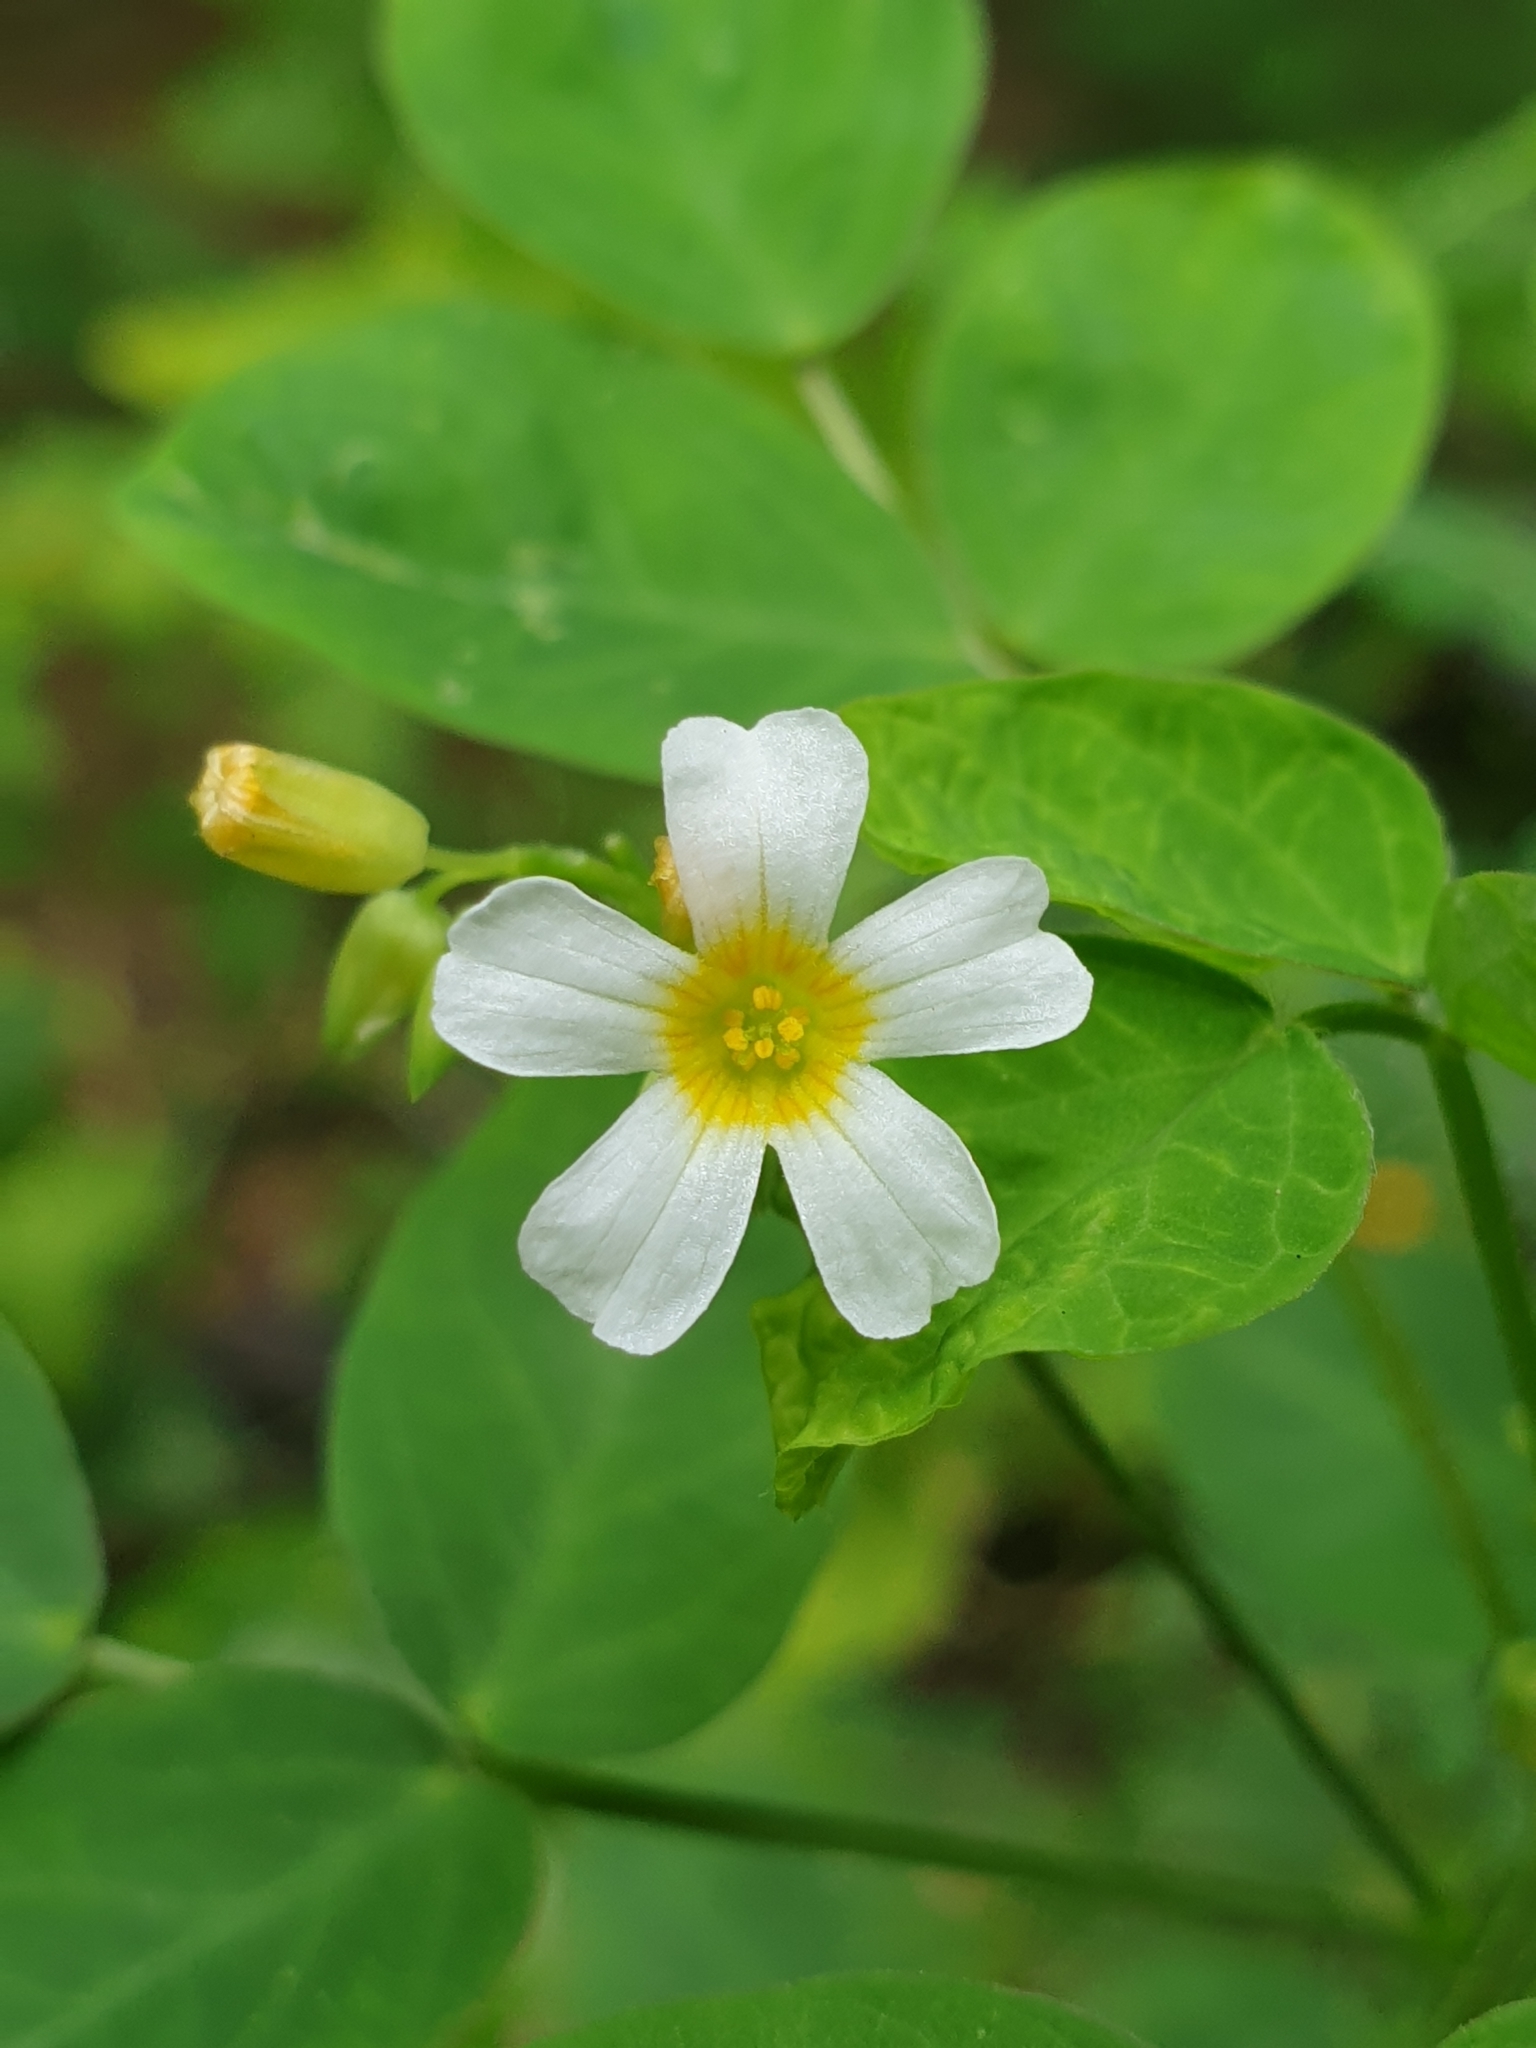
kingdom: Plantae
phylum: Tracheophyta
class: Magnoliopsida
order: Oxalidales
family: Oxalidaceae
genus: Oxalis
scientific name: Oxalis barrelieri
